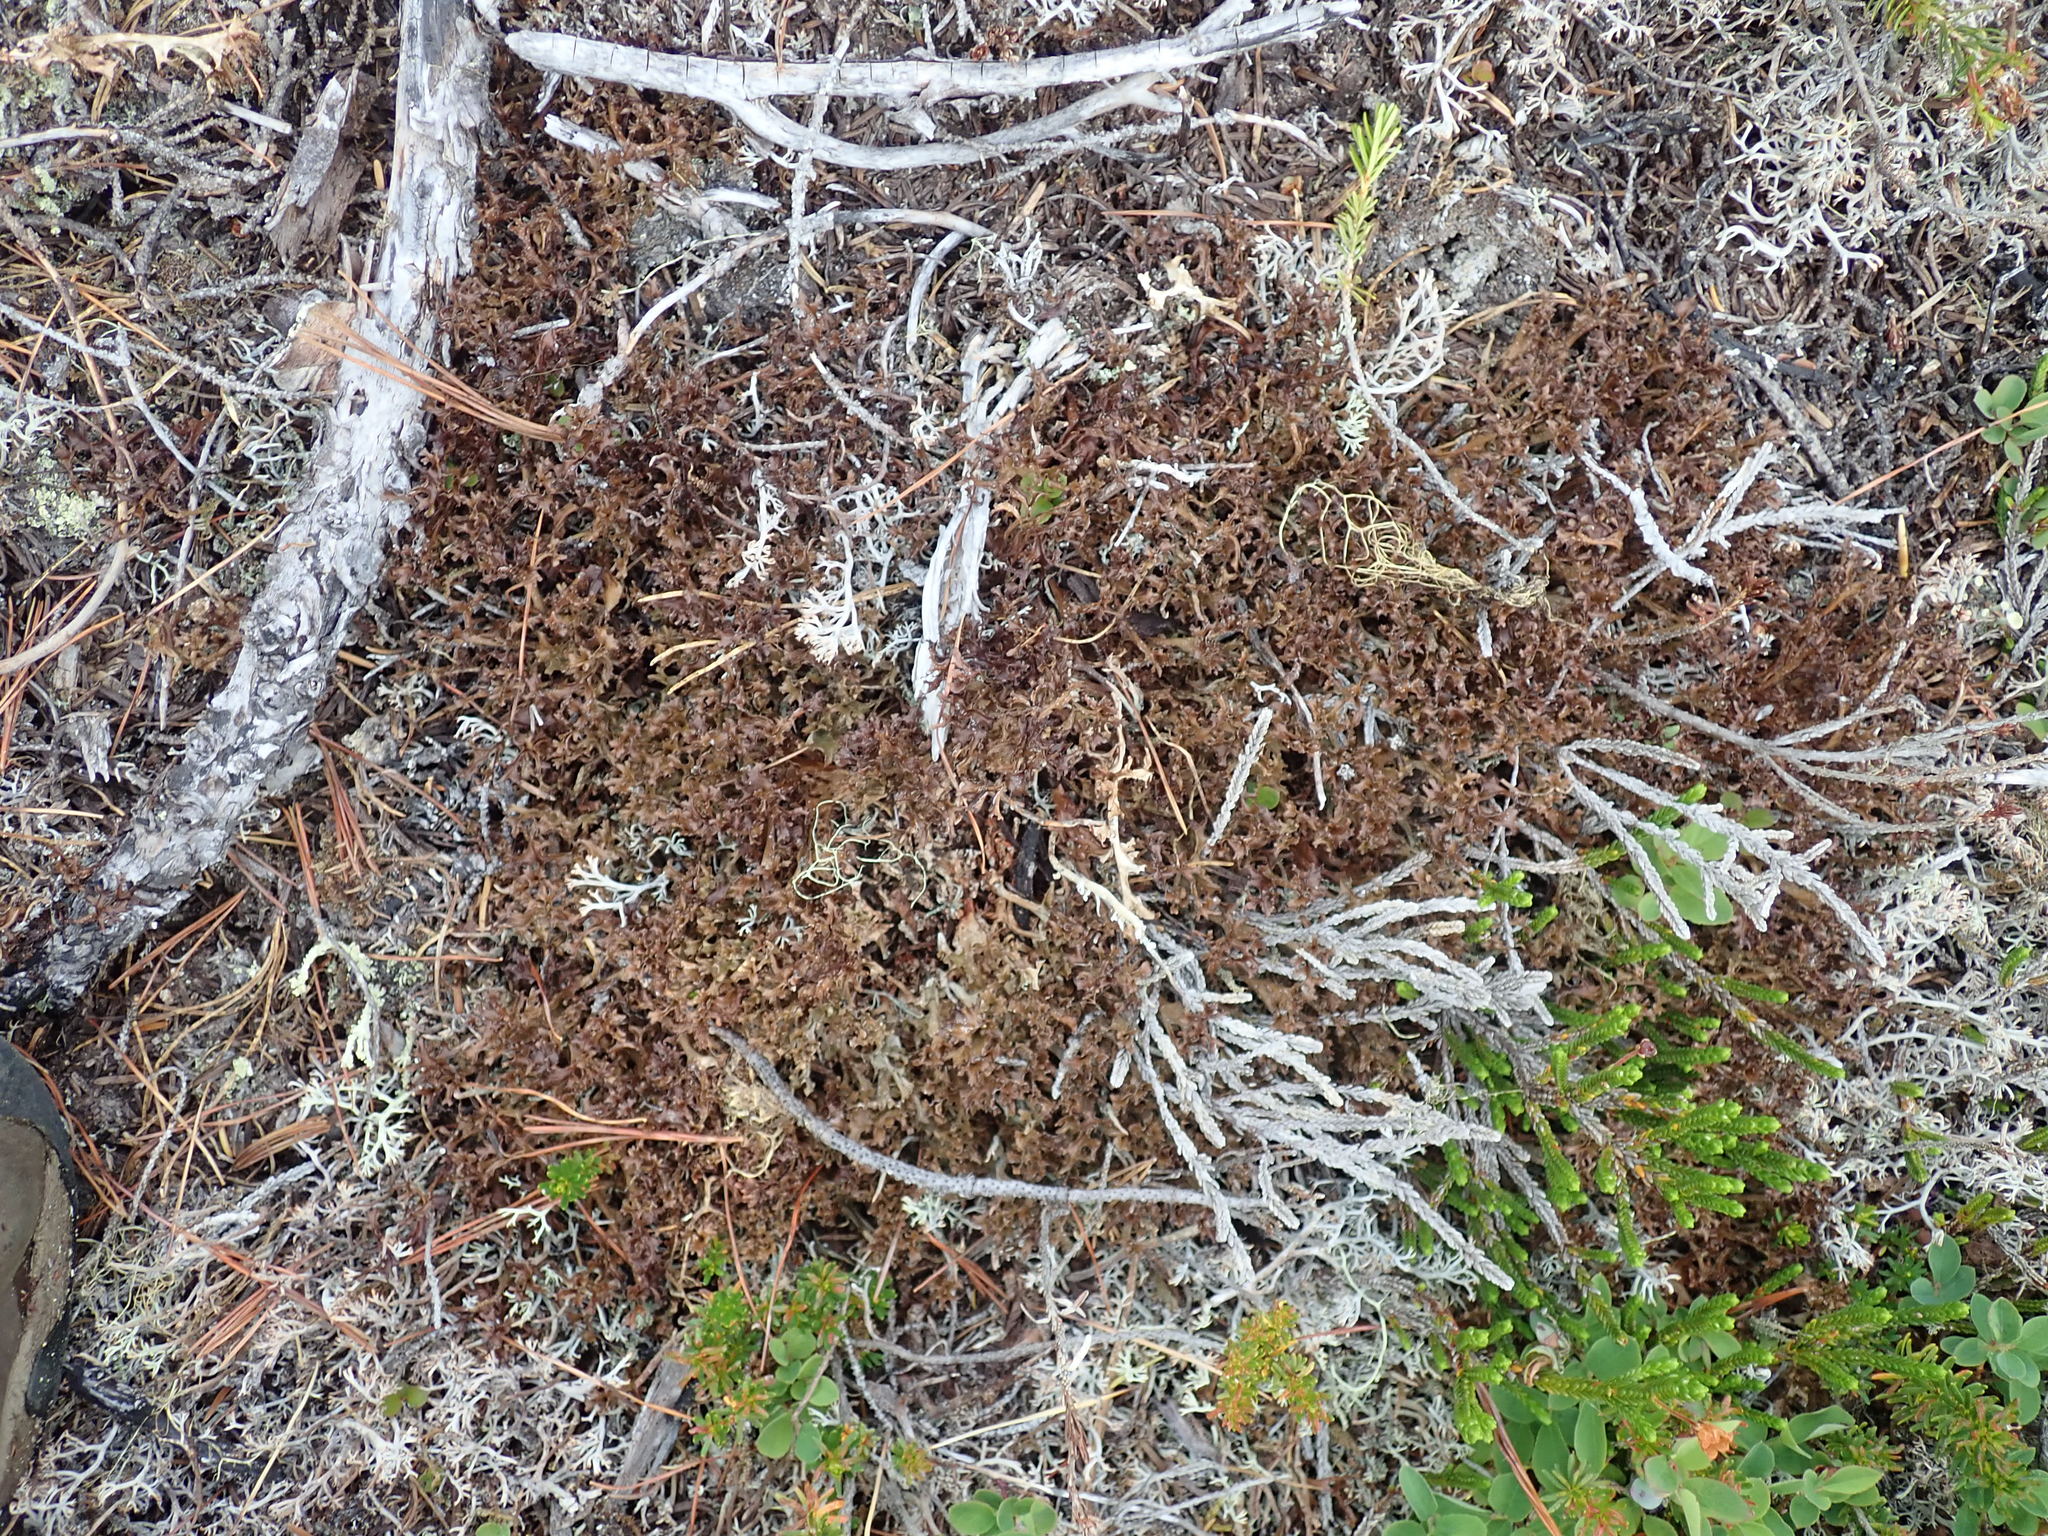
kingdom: Fungi
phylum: Ascomycota
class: Lecanoromycetes
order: Lecanorales
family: Parmeliaceae
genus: Cetraria
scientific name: Cetraria ericetorum
